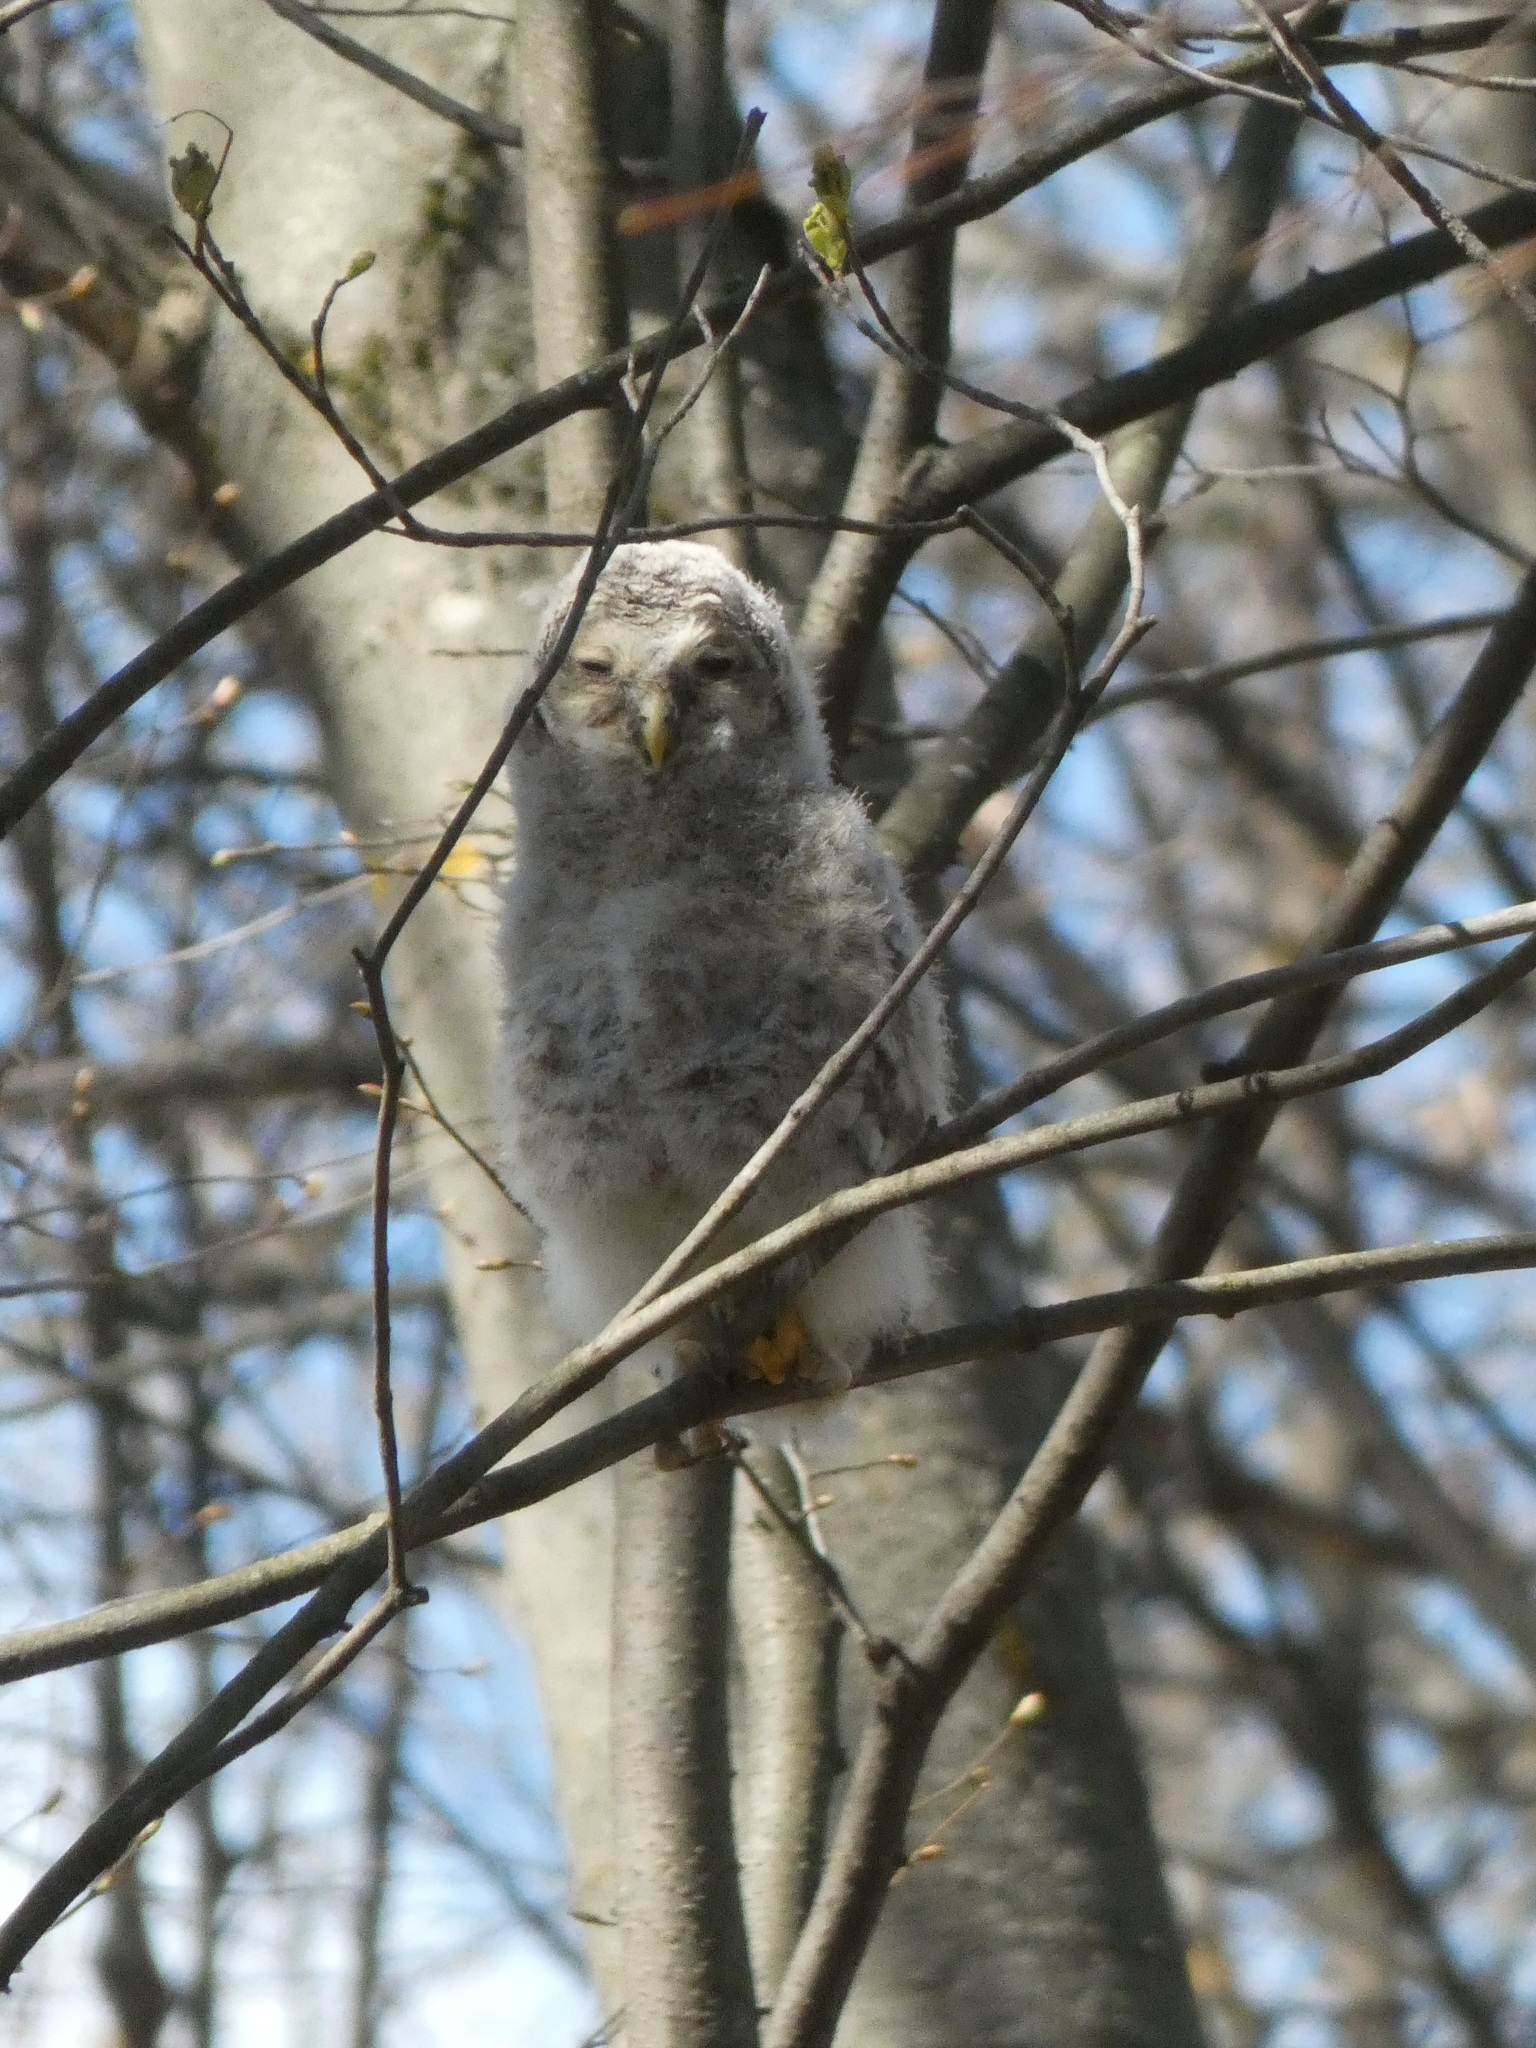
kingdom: Animalia
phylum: Chordata
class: Aves
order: Strigiformes
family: Strigidae
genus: Strix
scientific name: Strix uralensis
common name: Ural owl
